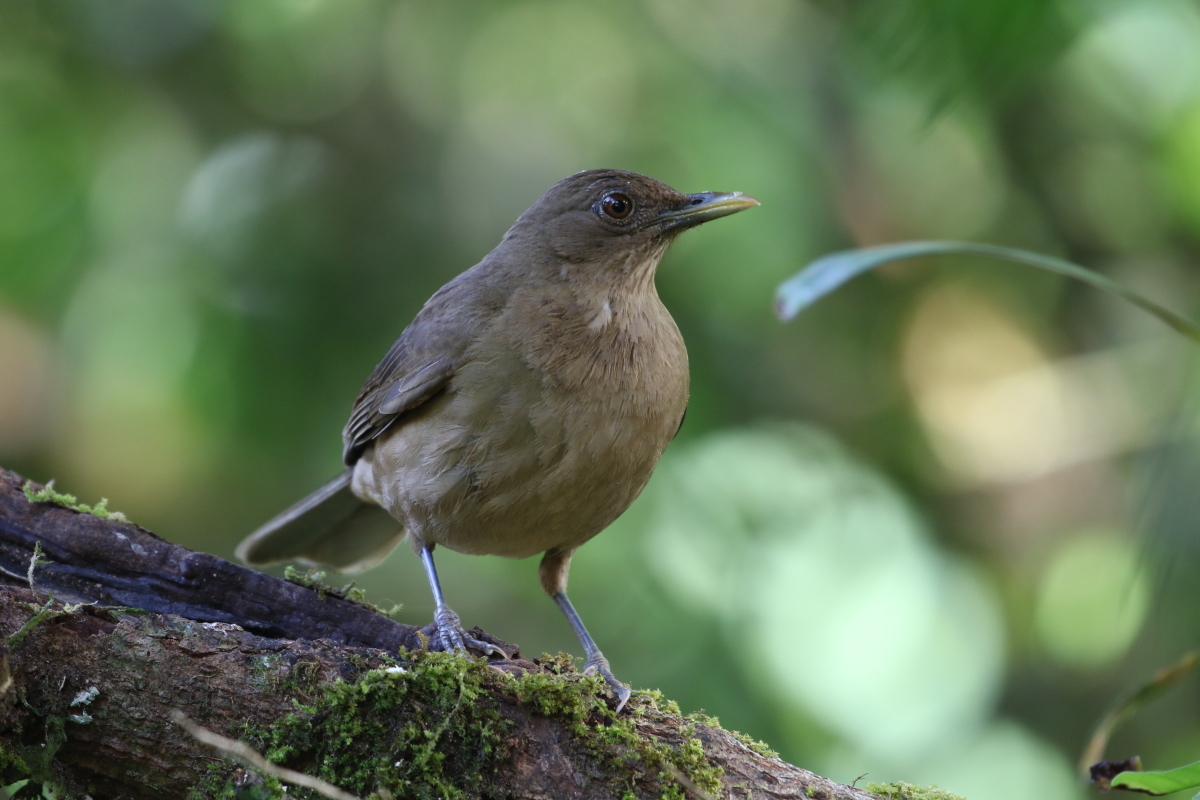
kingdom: Animalia
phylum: Chordata
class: Aves
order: Passeriformes
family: Turdidae
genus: Turdus
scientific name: Turdus grayi
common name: Clay-colored thrush
